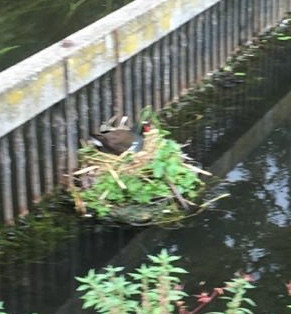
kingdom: Animalia
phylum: Chordata
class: Aves
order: Gruiformes
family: Rallidae
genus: Gallinula
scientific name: Gallinula chloropus
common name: Common moorhen
